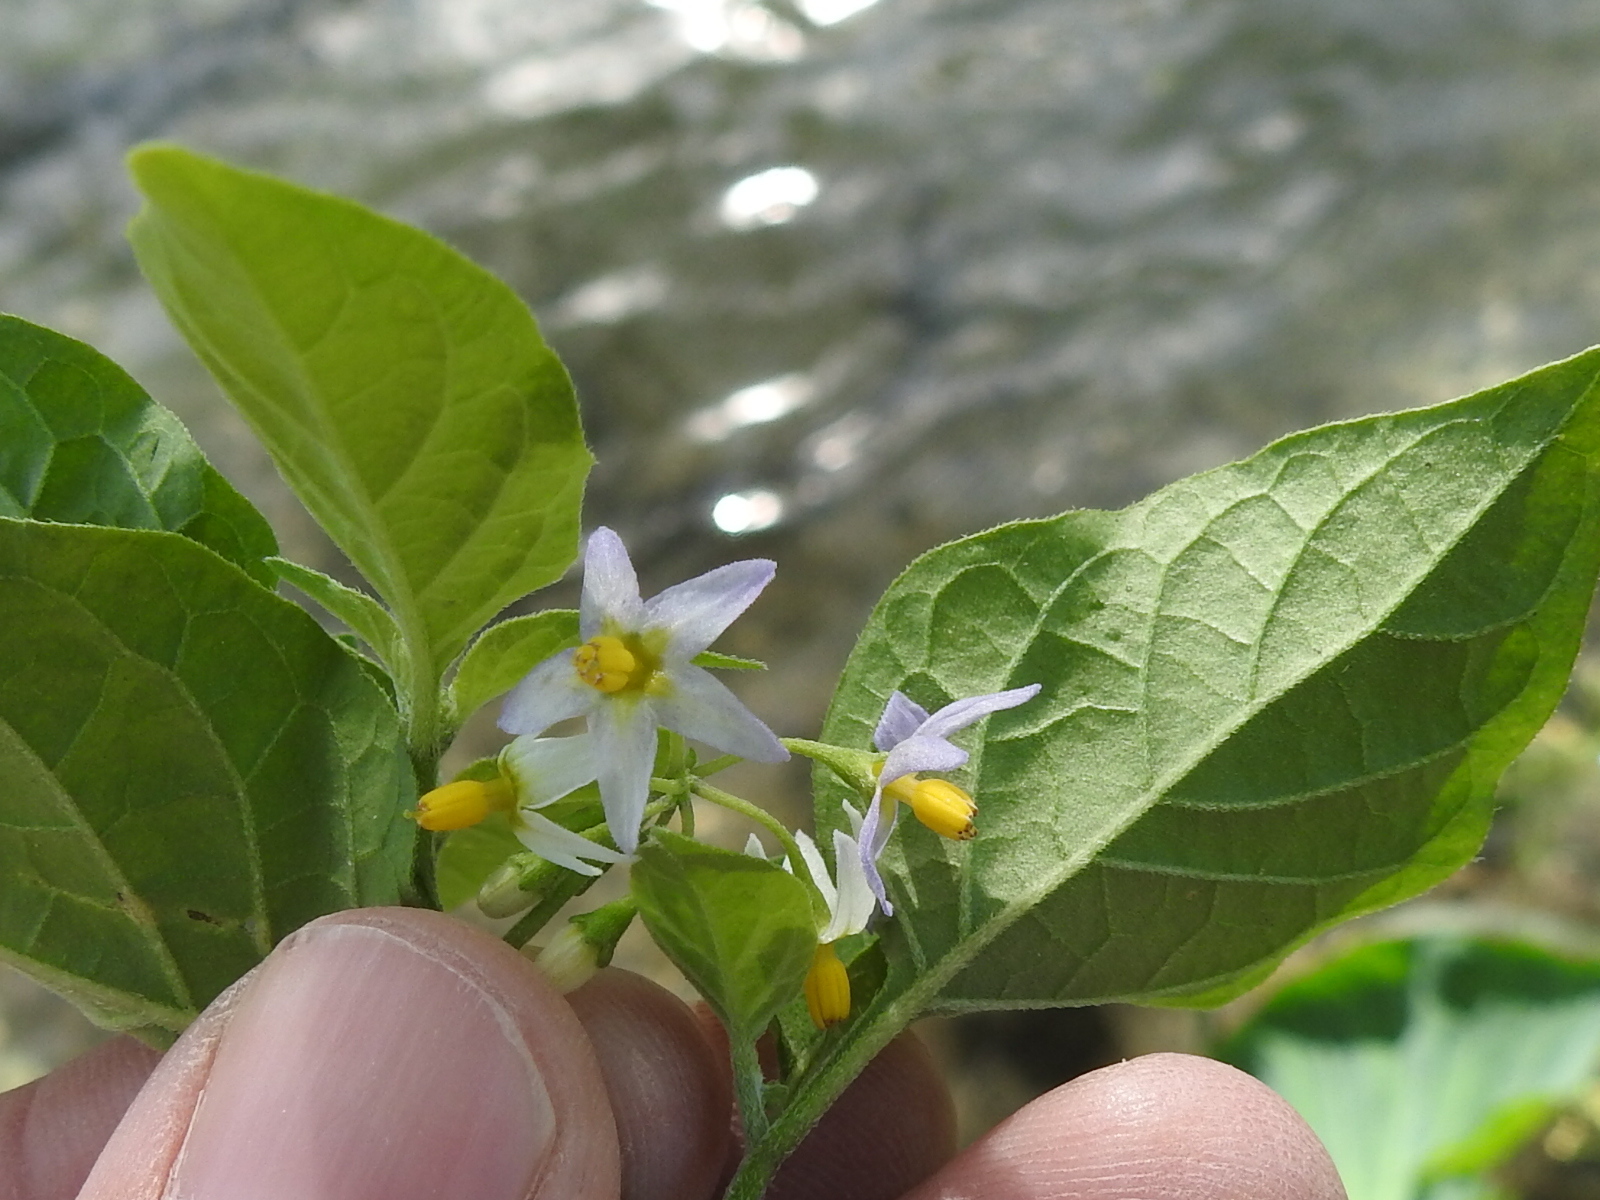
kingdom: Plantae
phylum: Tracheophyta
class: Magnoliopsida
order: Solanales
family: Solanaceae
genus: Solanum
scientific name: Solanum emulans
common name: Eastern black nightshade
